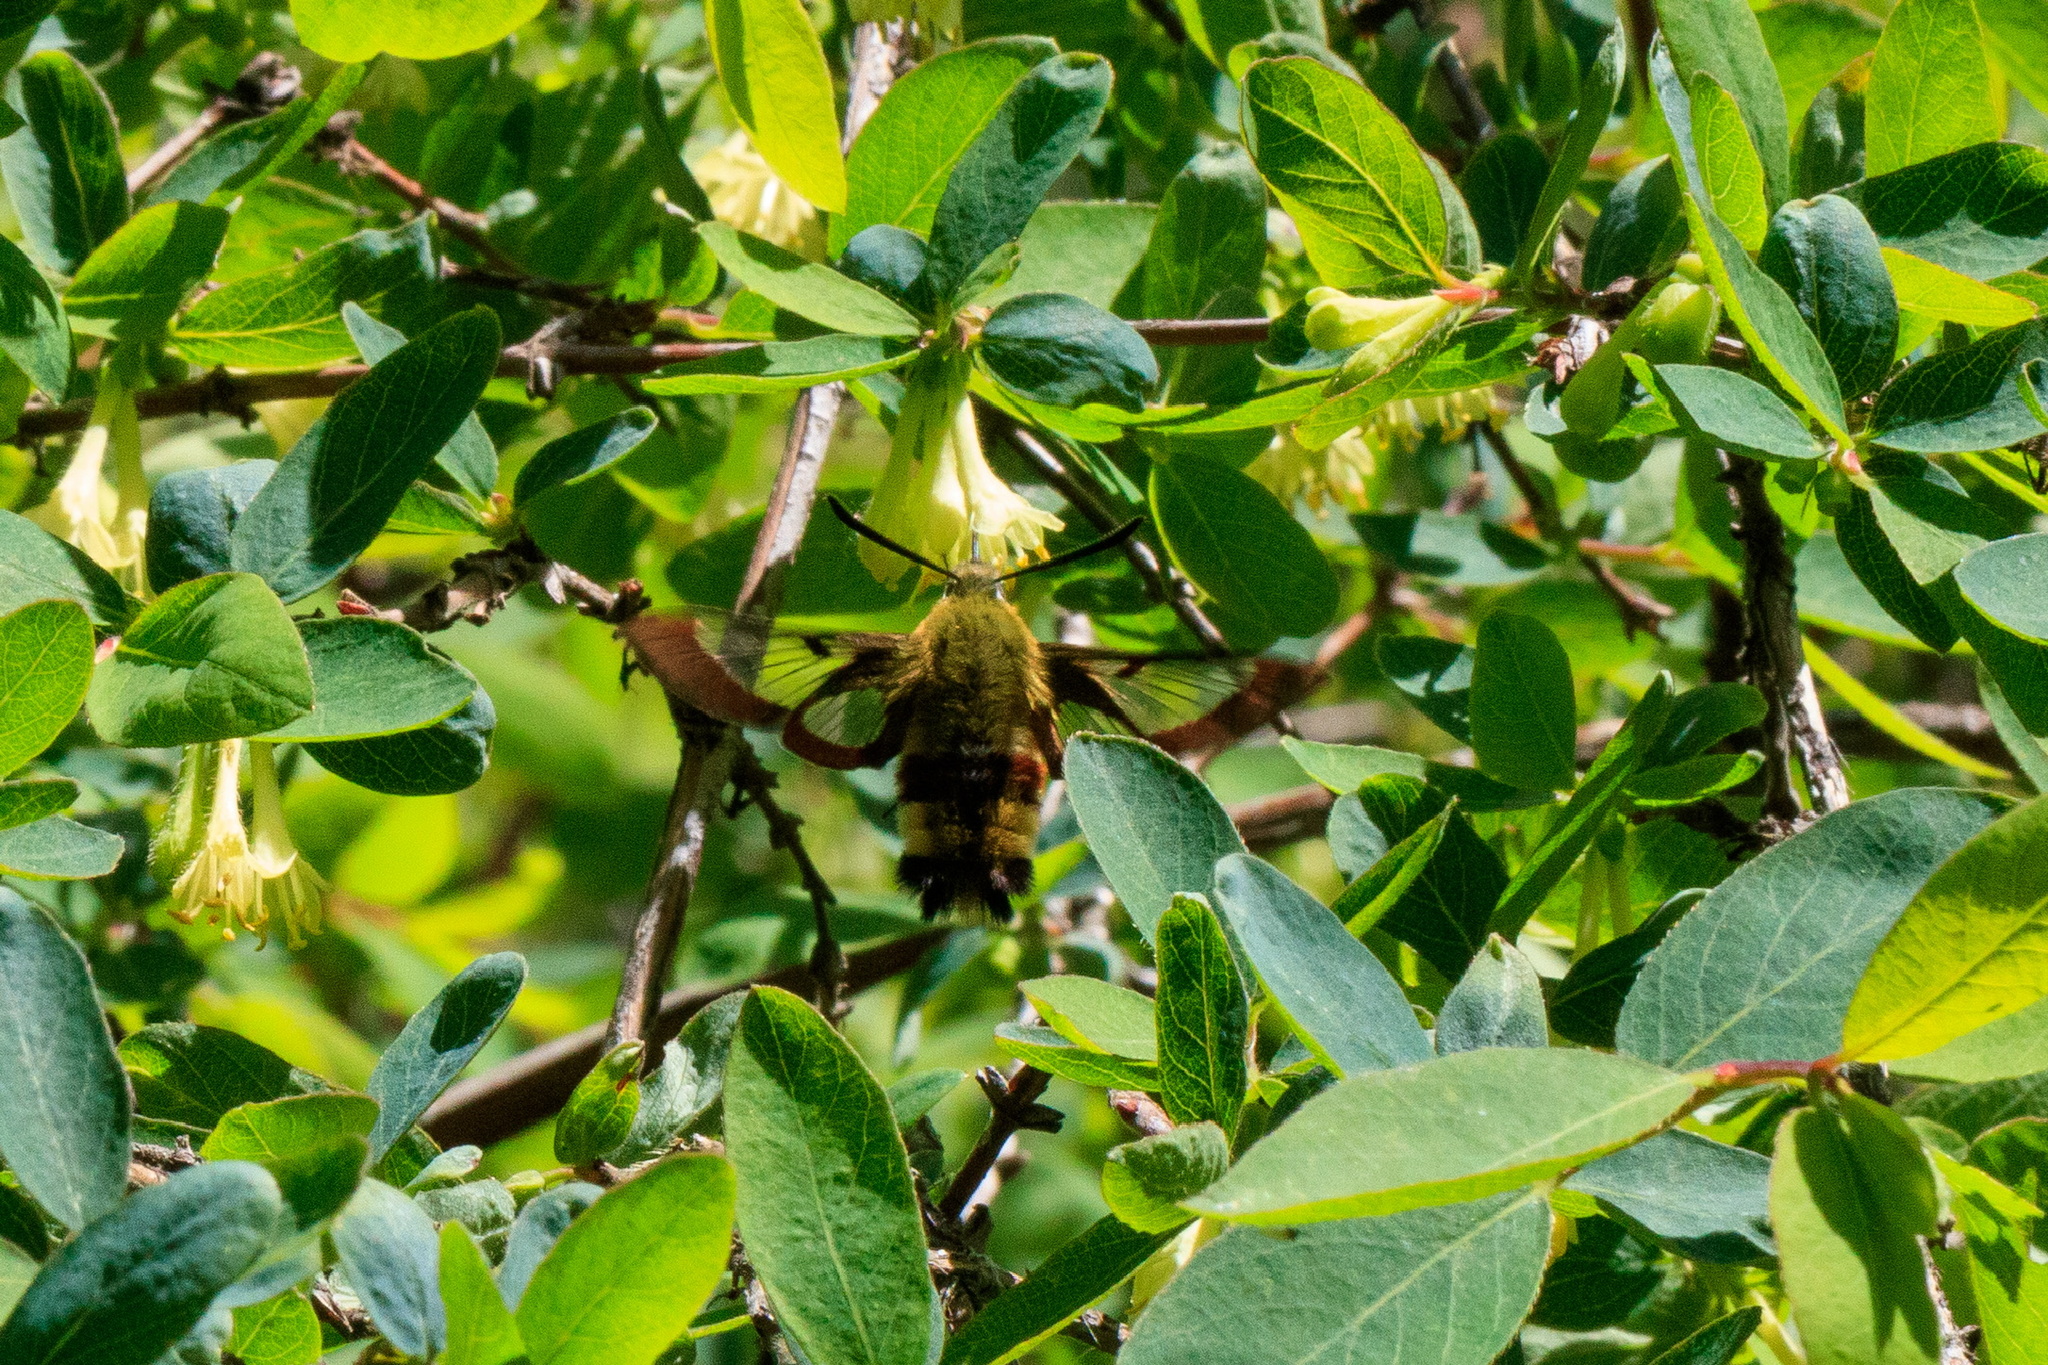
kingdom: Animalia
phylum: Arthropoda
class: Insecta
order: Lepidoptera
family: Sphingidae
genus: Hemaris
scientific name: Hemaris fuciformis
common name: Broad-bordered bee hawk-moth
